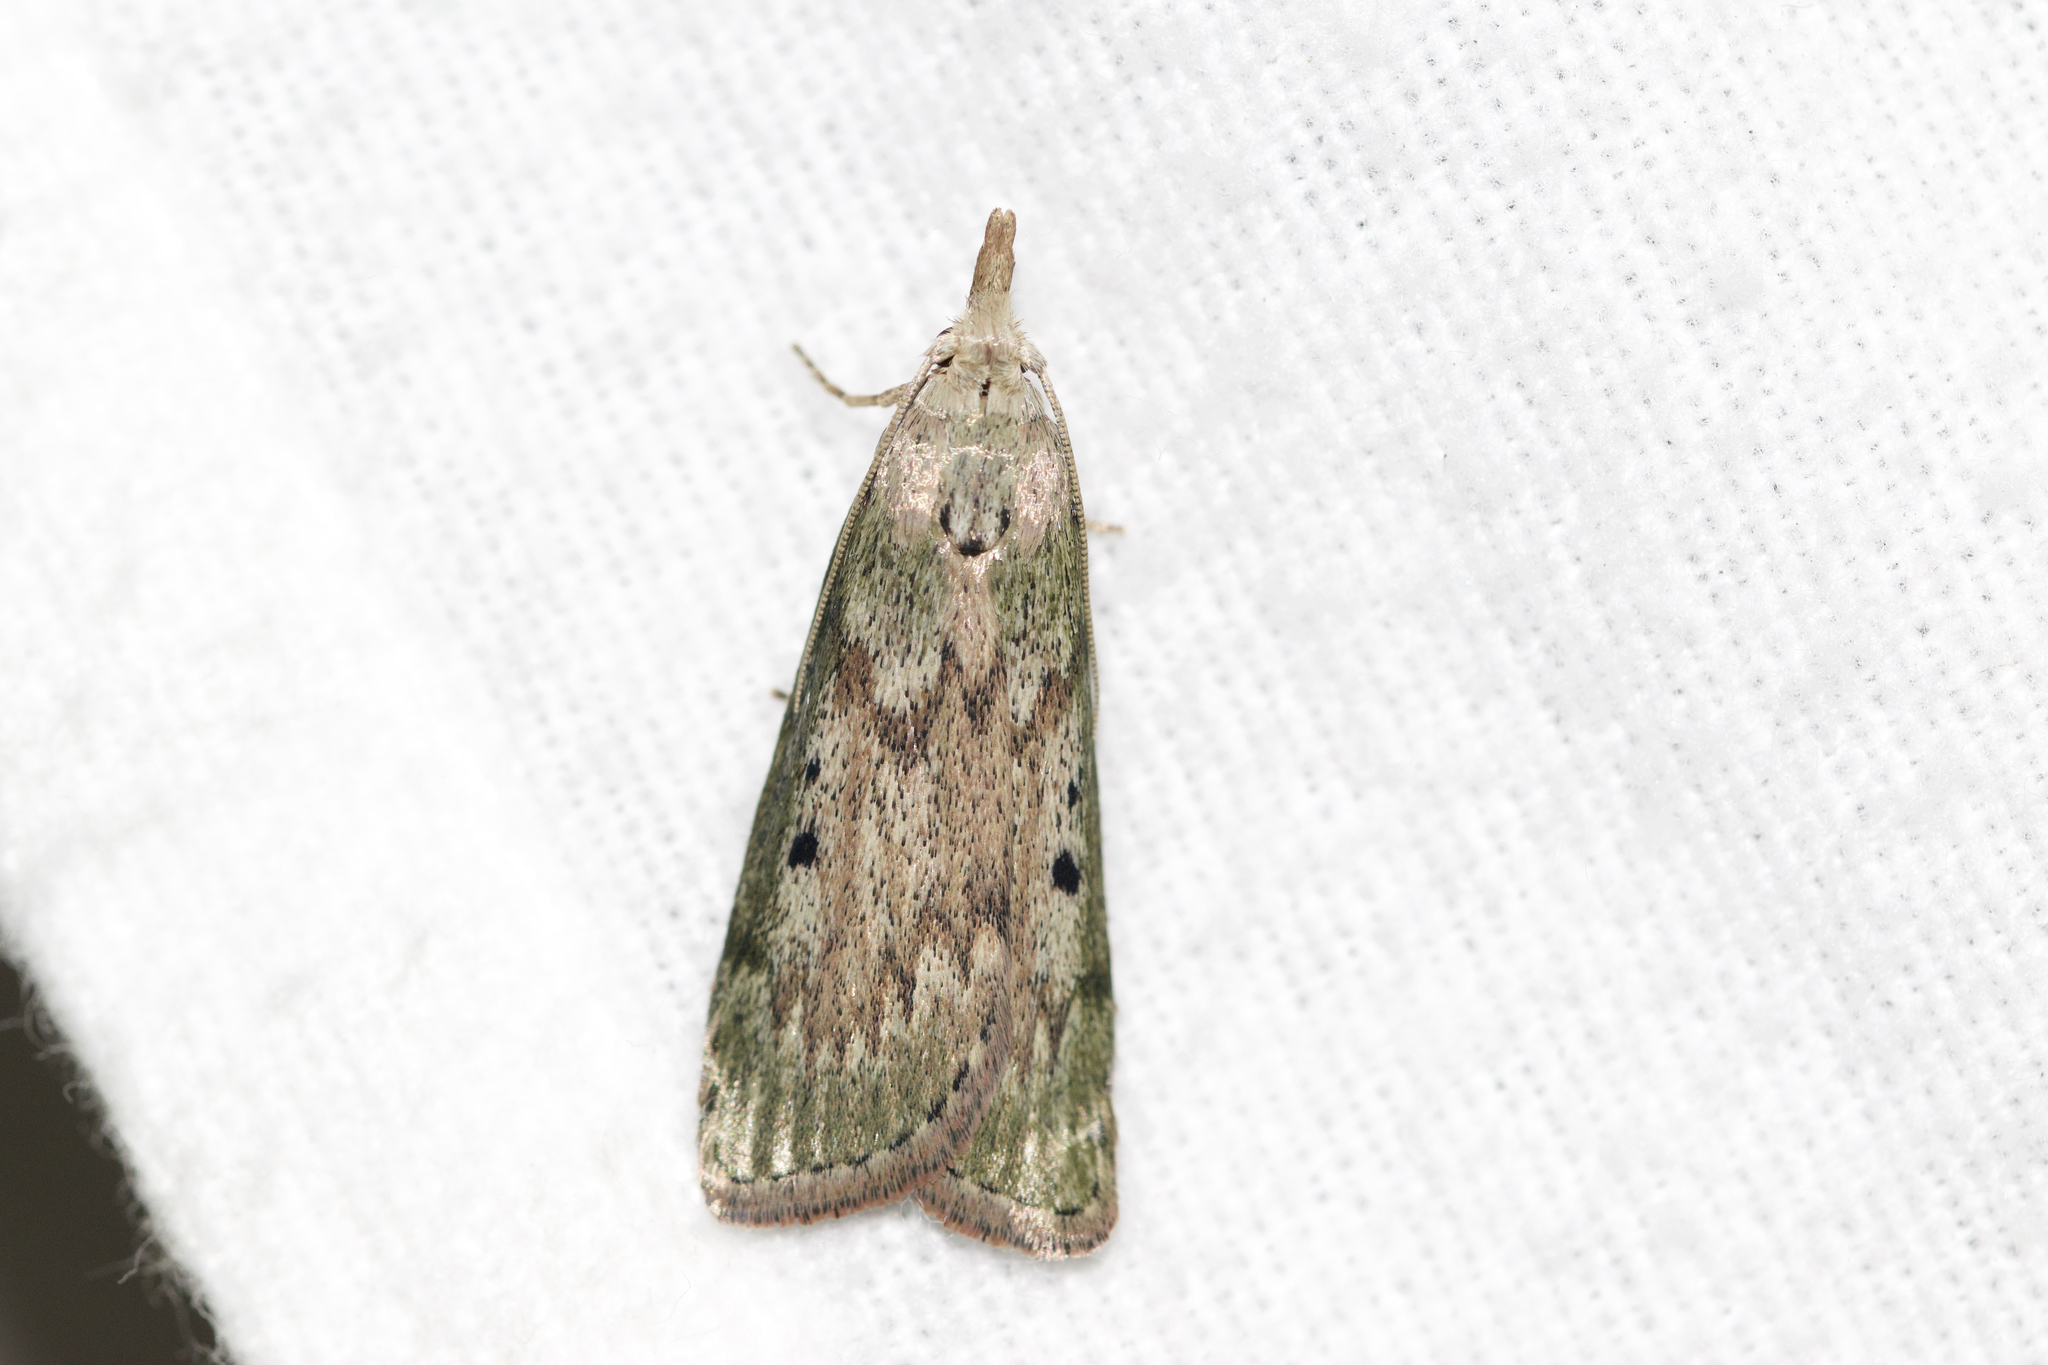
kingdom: Animalia
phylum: Arthropoda
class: Insecta
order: Lepidoptera
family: Pyralidae
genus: Aphomia
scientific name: Aphomia sociella
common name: Bee moth
